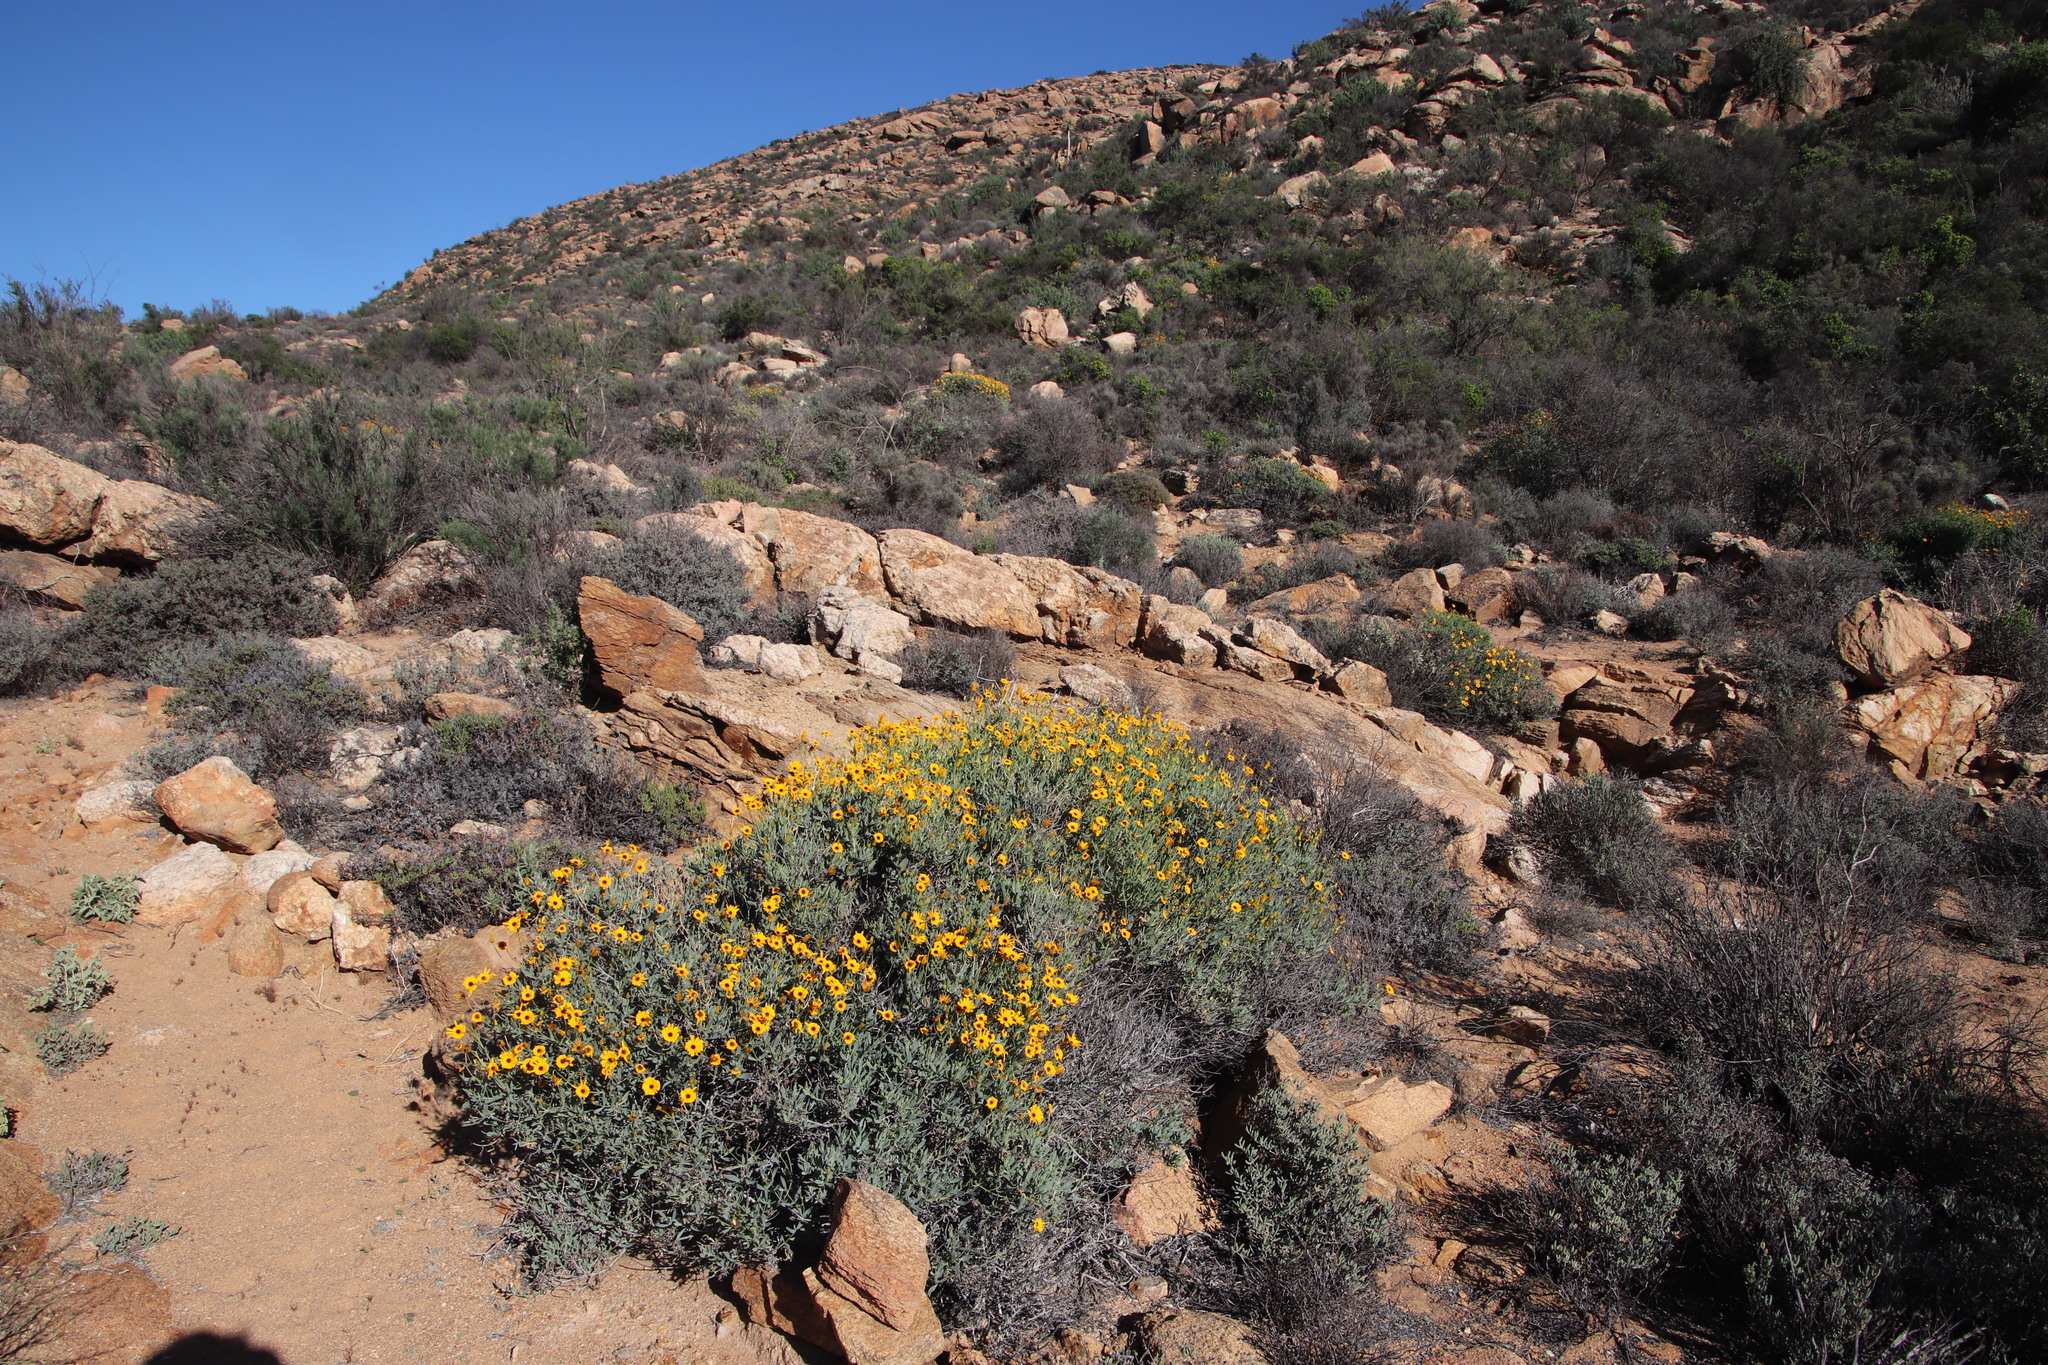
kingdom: Plantae
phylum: Tracheophyta
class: Magnoliopsida
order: Asterales
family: Asteraceae
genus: Osteospermum
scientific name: Osteospermum oppositifolium
